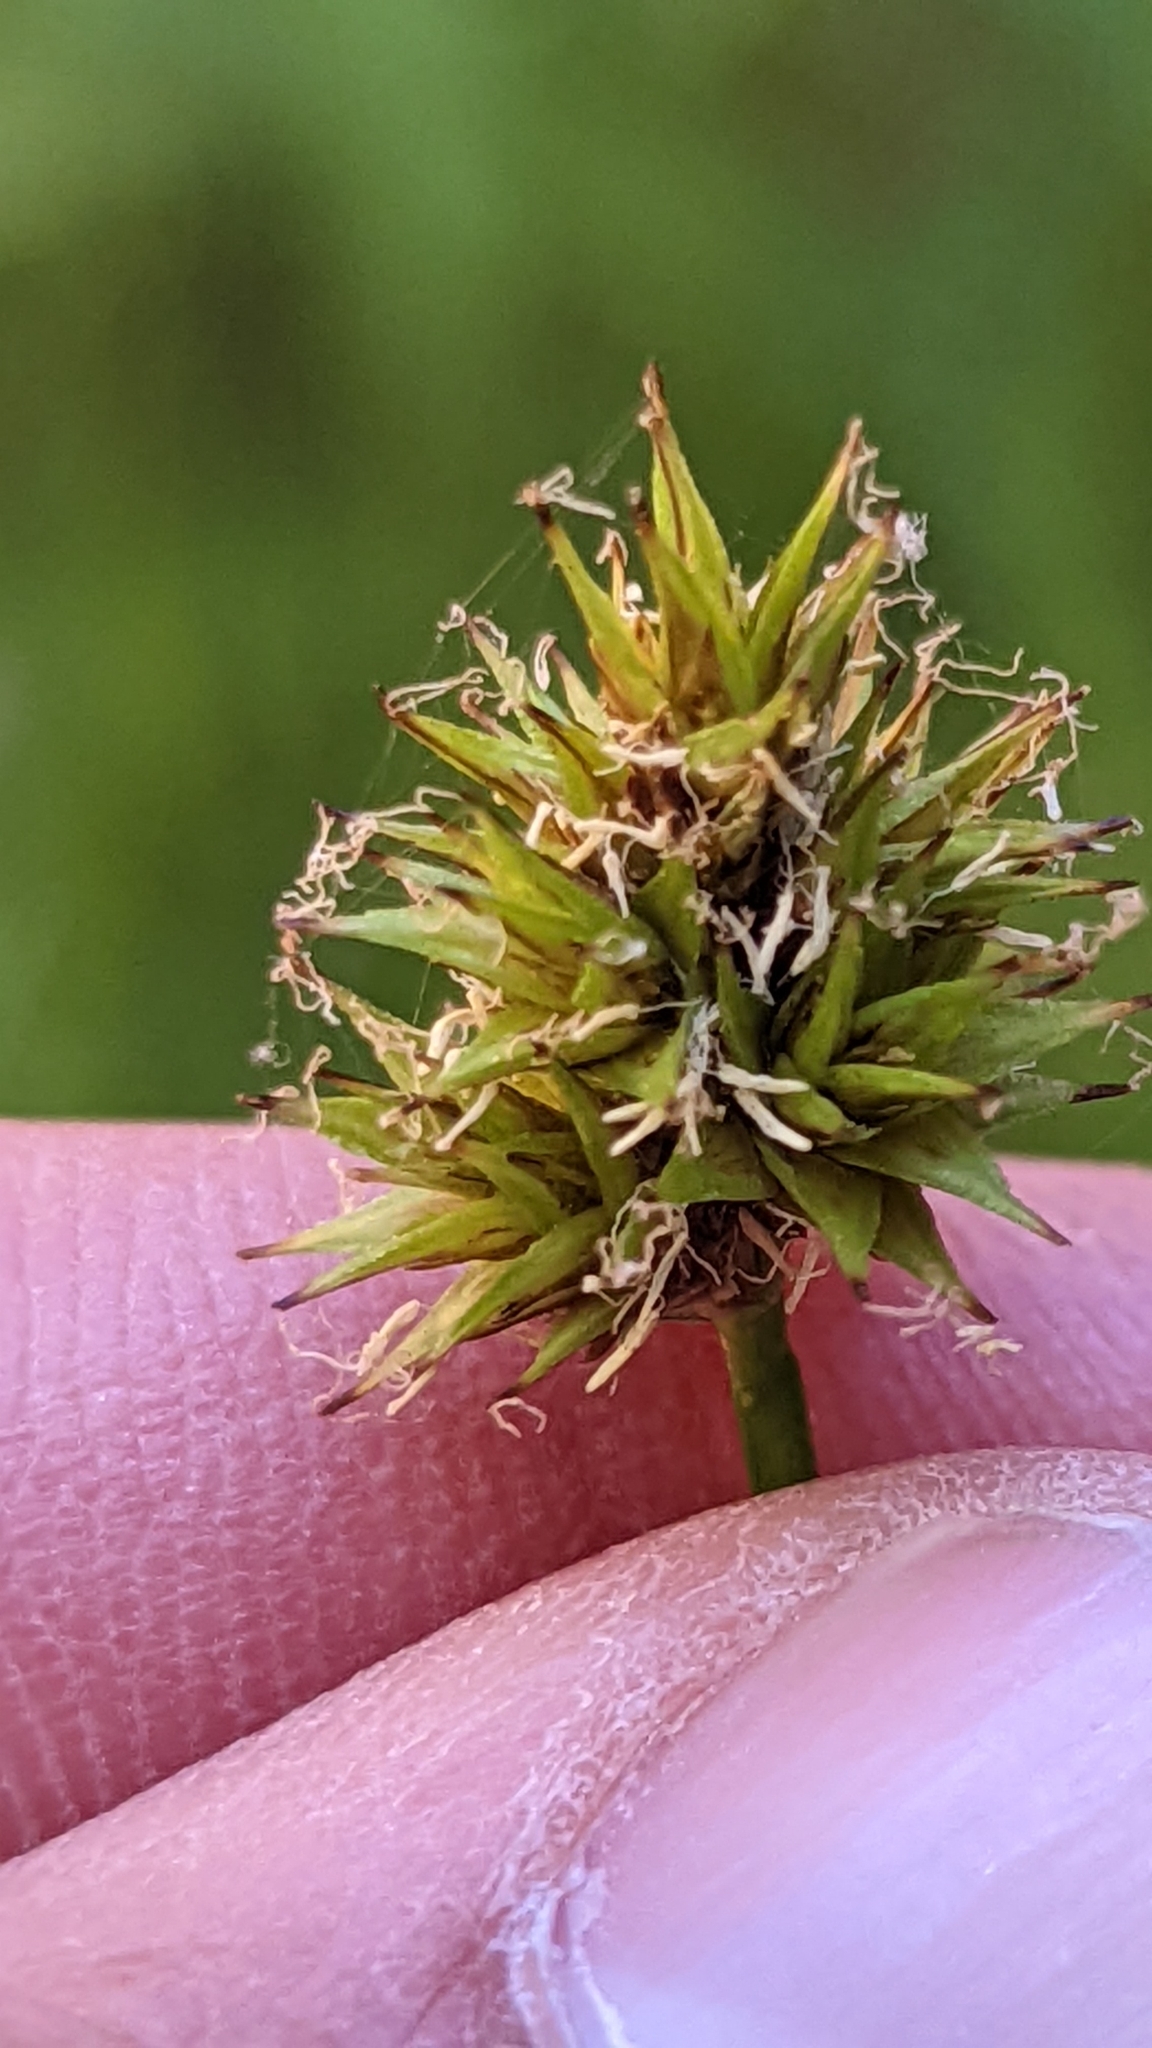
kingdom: Plantae
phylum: Tracheophyta
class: Liliopsida
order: Poales
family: Cyperaceae
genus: Carex
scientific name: Carex microptera
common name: Oval-headed sedge
